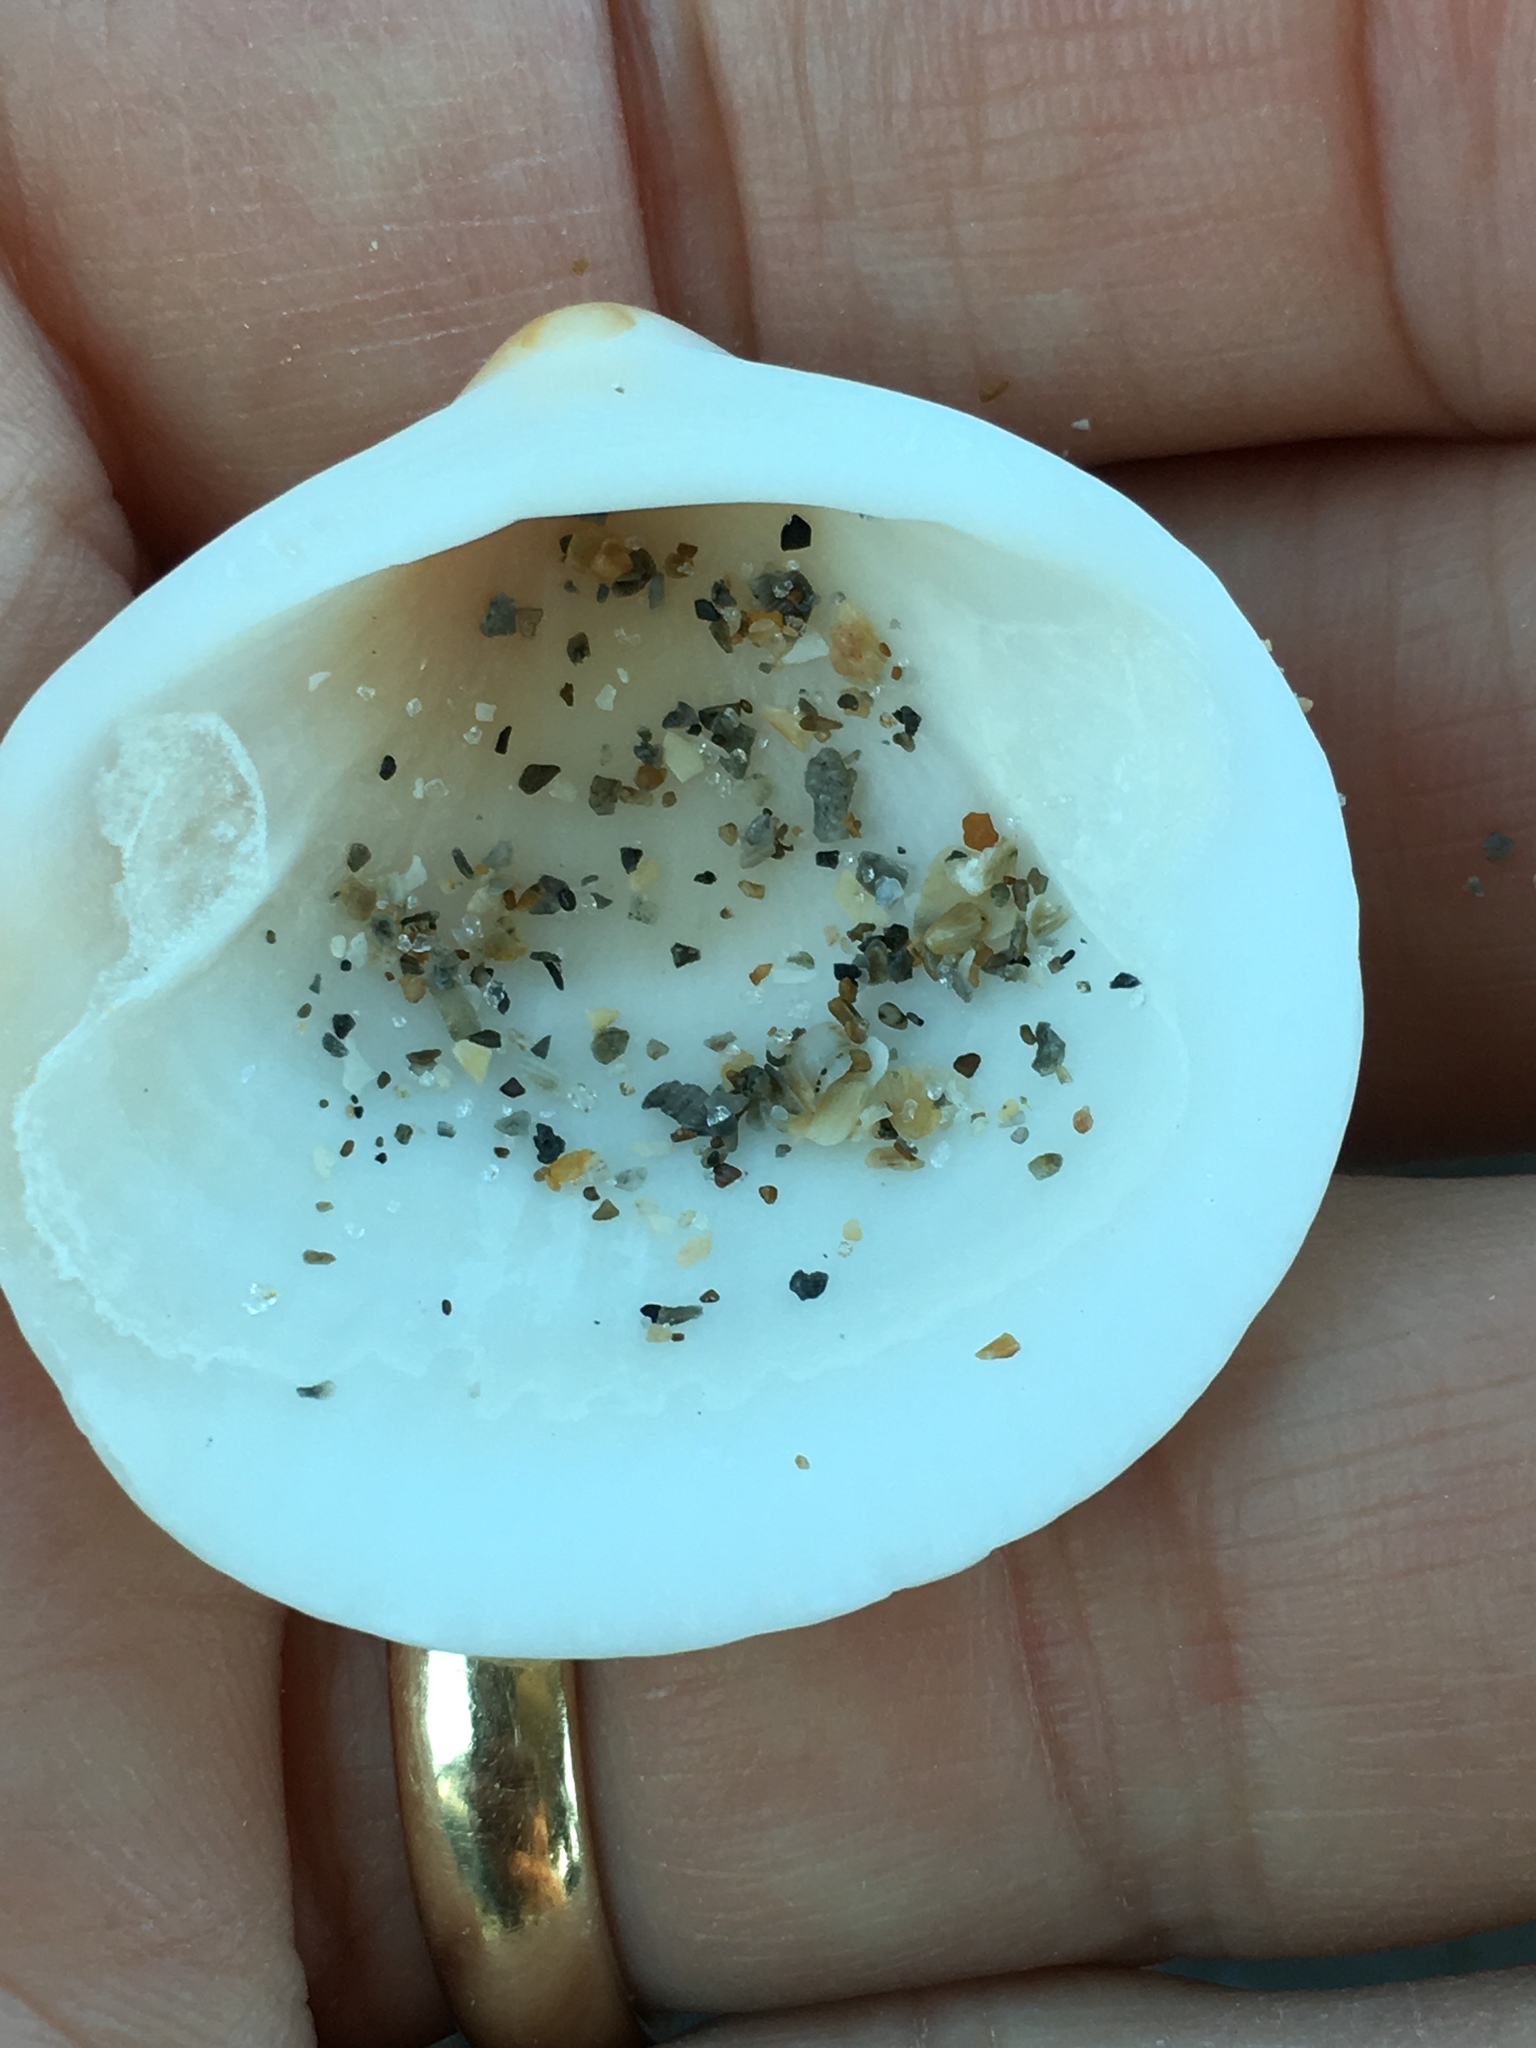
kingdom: Animalia
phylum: Mollusca
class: Bivalvia
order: Arcida
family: Glycymerididae
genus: Glycymeris
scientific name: Glycymeris spectralis
